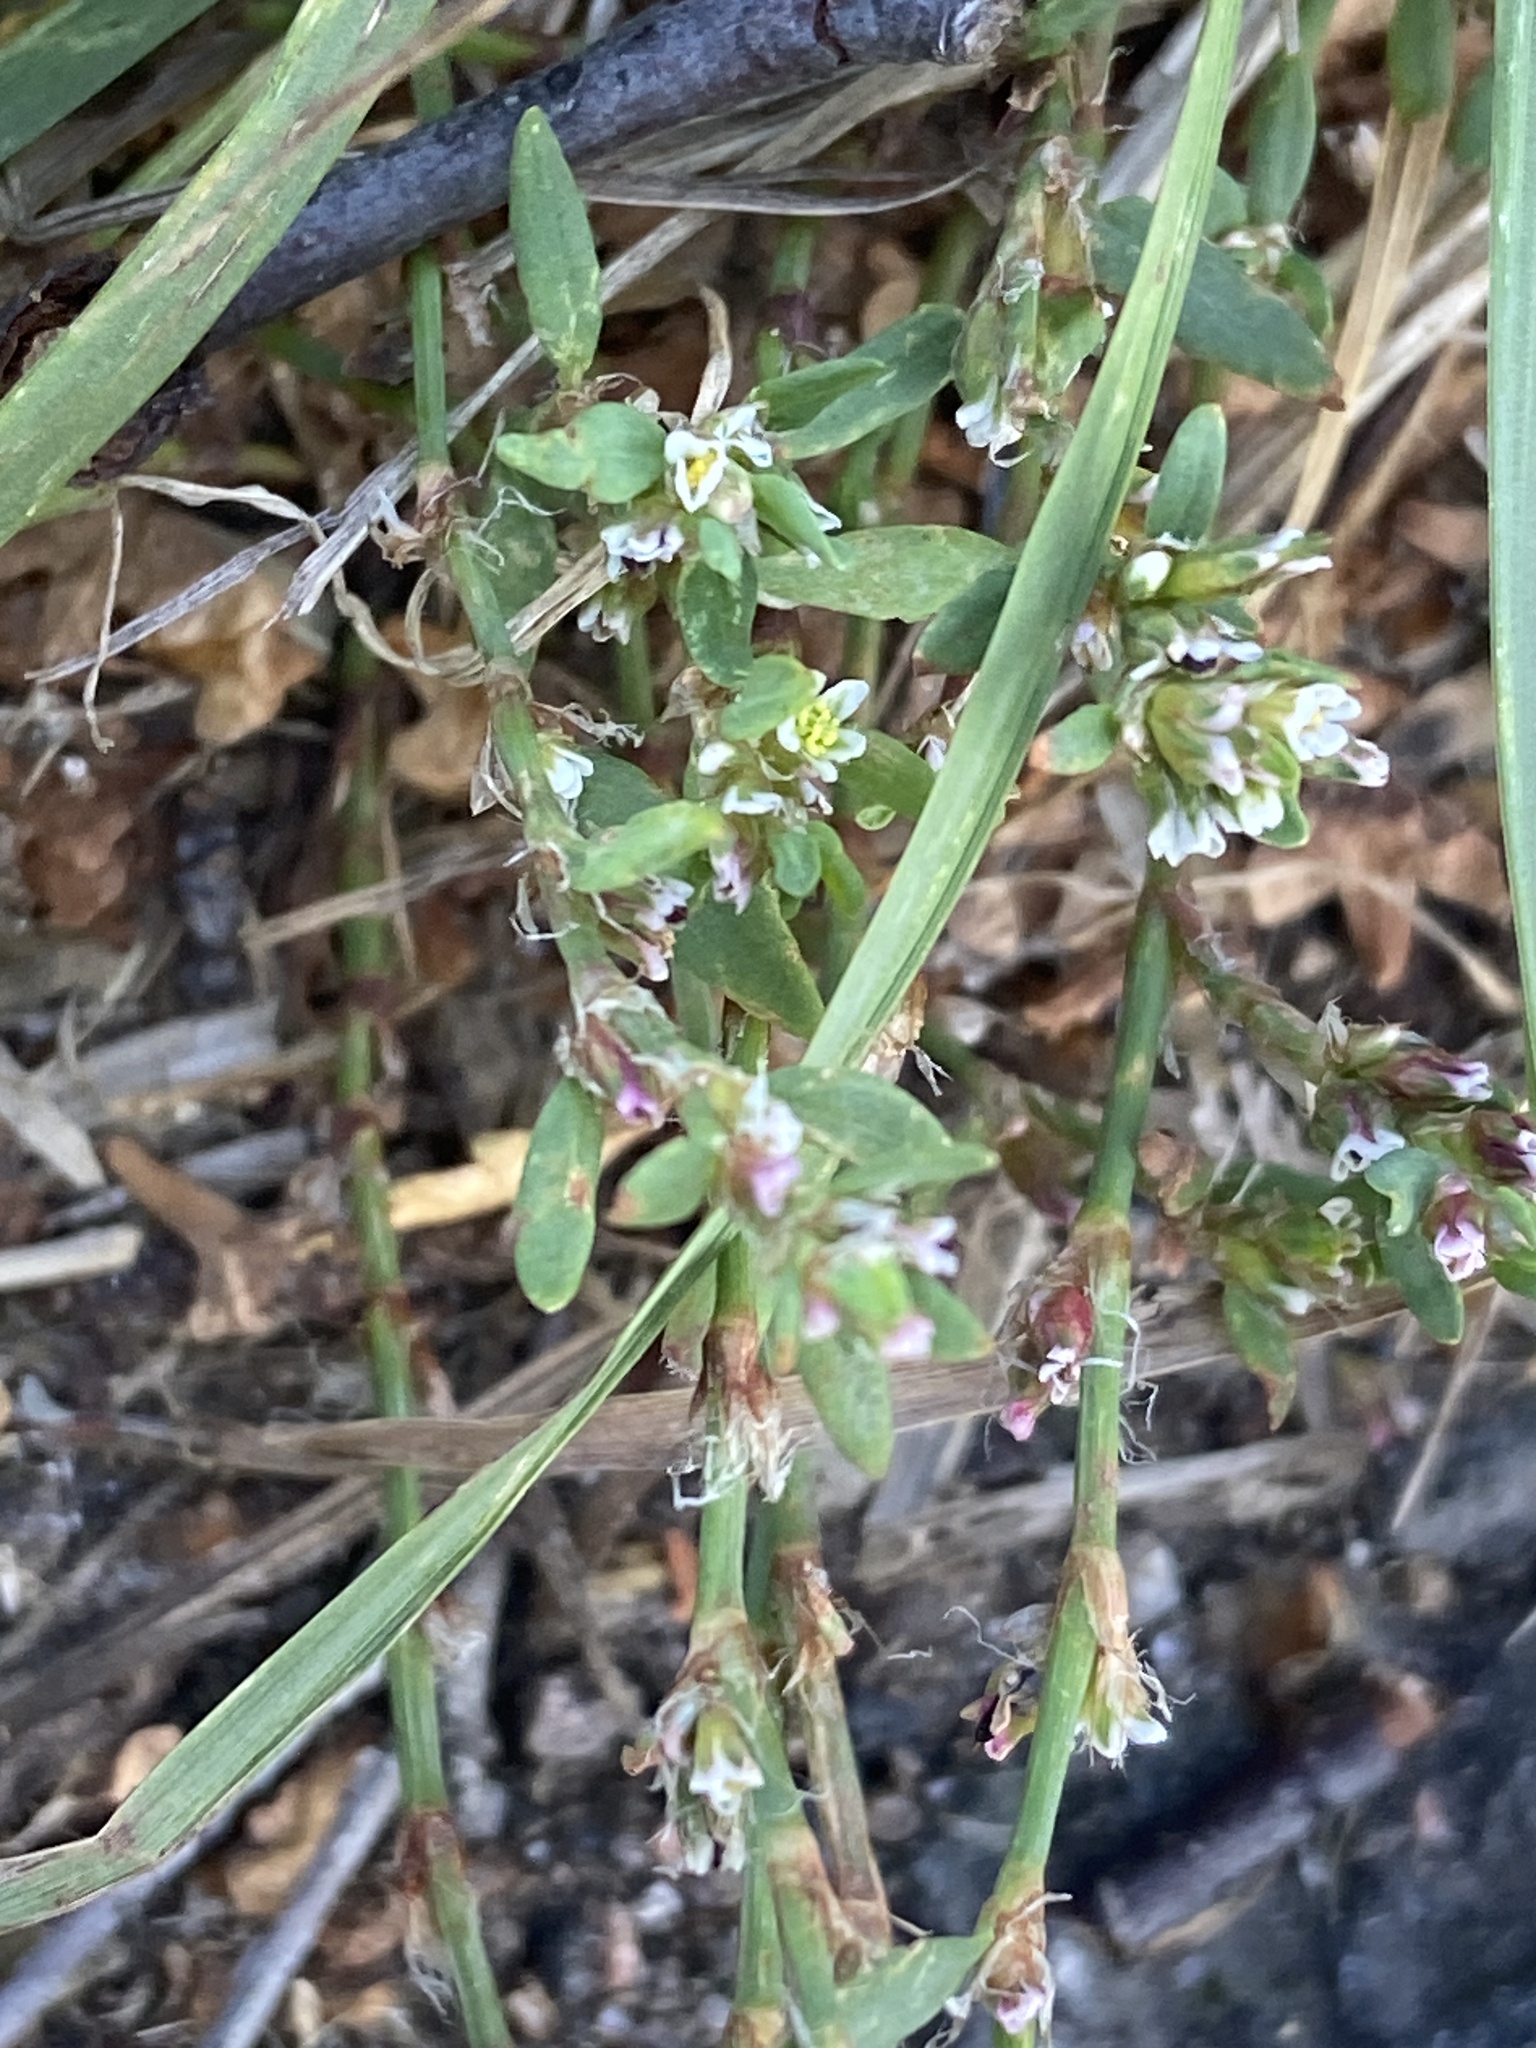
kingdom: Plantae
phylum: Tracheophyta
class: Magnoliopsida
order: Caryophyllales
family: Polygonaceae
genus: Polygonum
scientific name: Polygonum arenastrum
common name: Equal-leaved knotgrass
